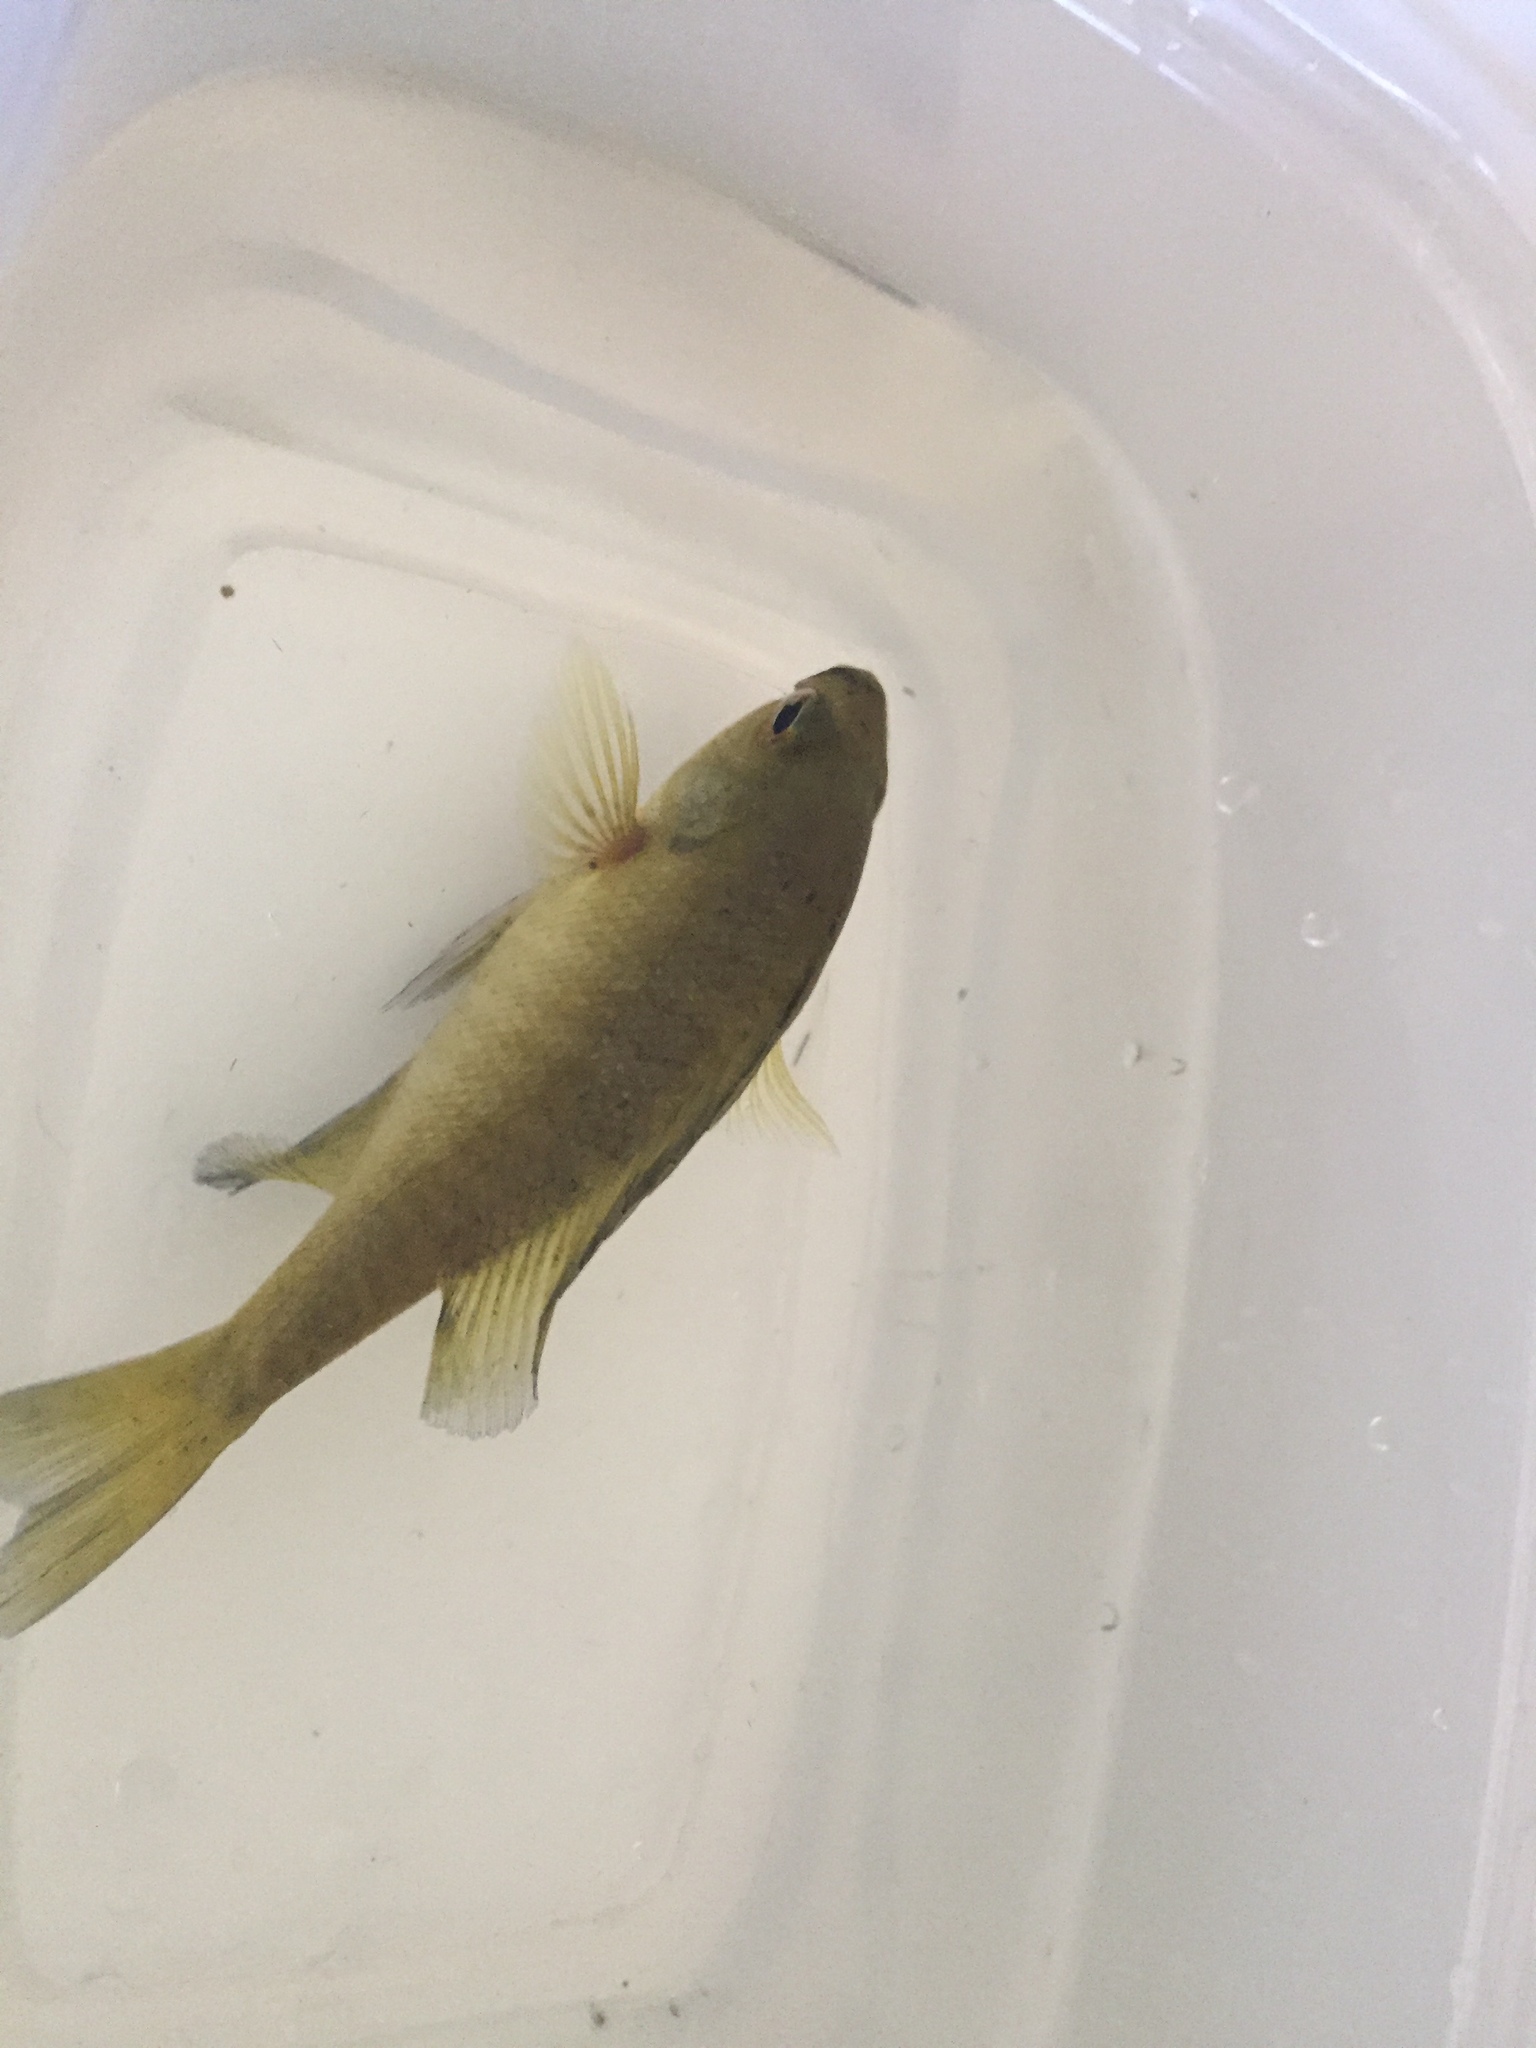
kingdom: Animalia
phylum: Chordata
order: Perciformes
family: Centrarchidae
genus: Lepomis
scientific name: Lepomis macrochirus
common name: Bluegill
